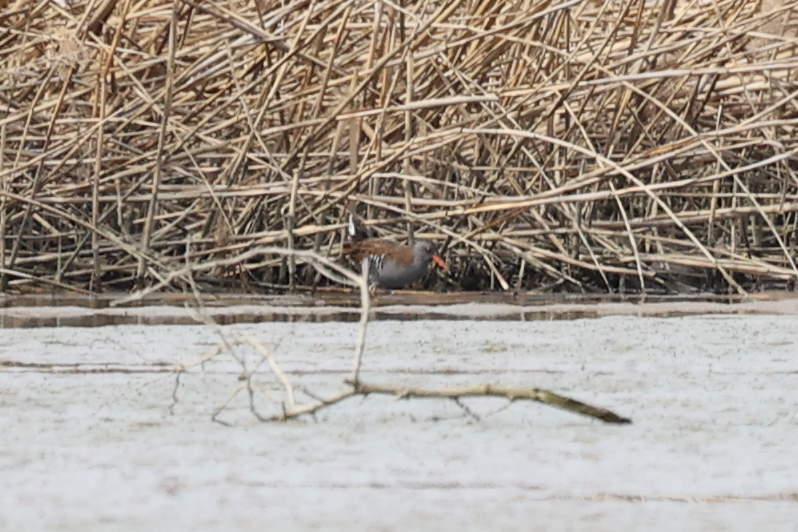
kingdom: Animalia
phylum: Chordata
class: Aves
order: Gruiformes
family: Rallidae
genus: Rallus
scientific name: Rallus aquaticus
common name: Water rail
